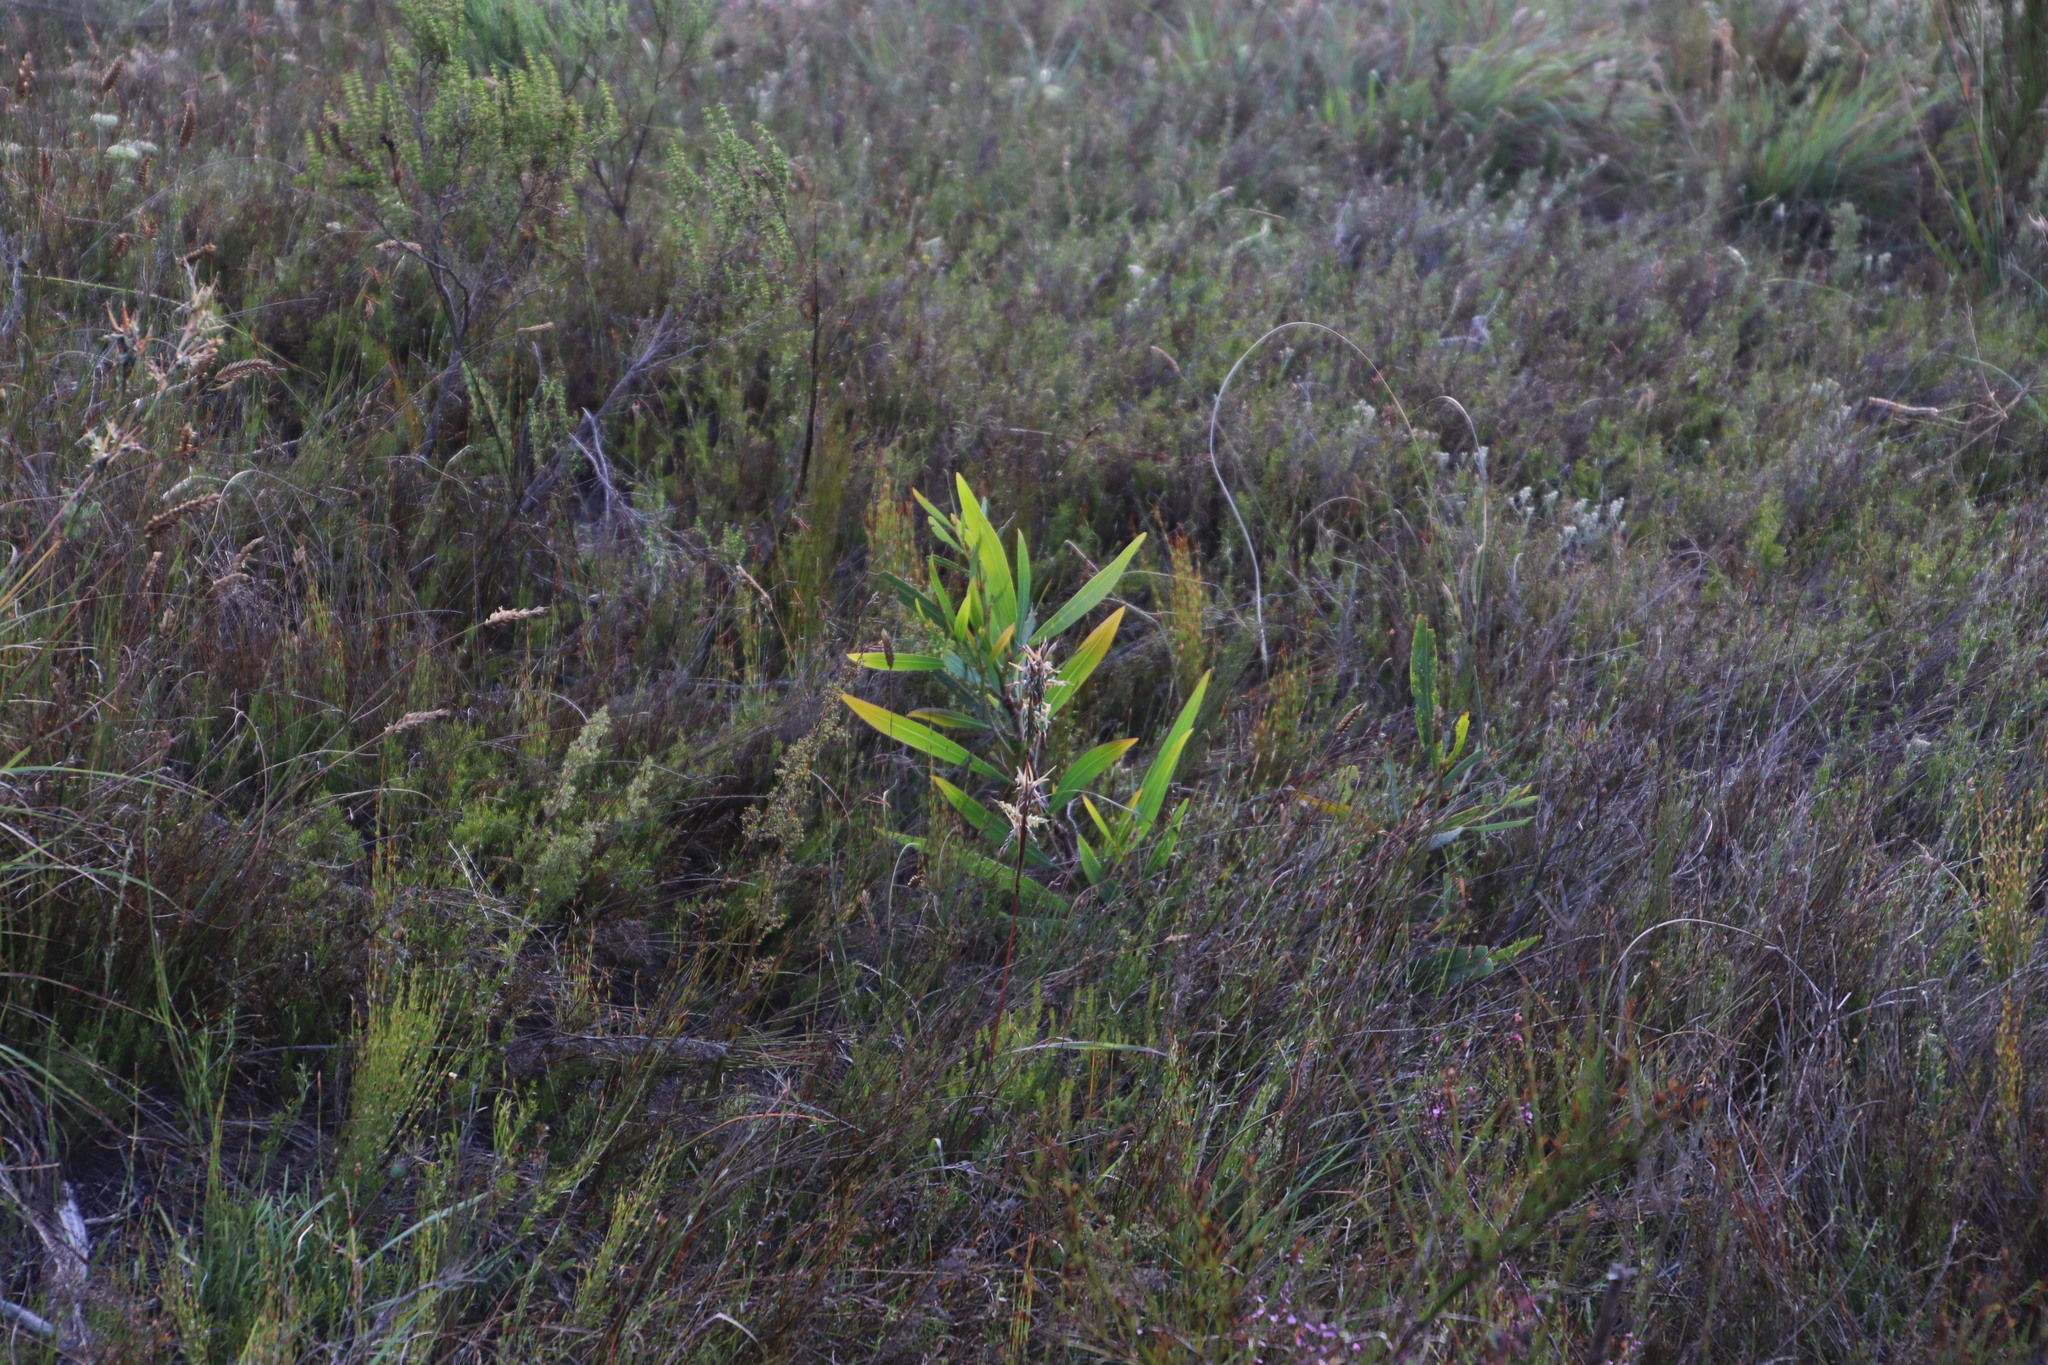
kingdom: Plantae
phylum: Tracheophyta
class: Magnoliopsida
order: Fabales
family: Fabaceae
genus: Acacia
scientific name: Acacia saligna
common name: Orange wattle
